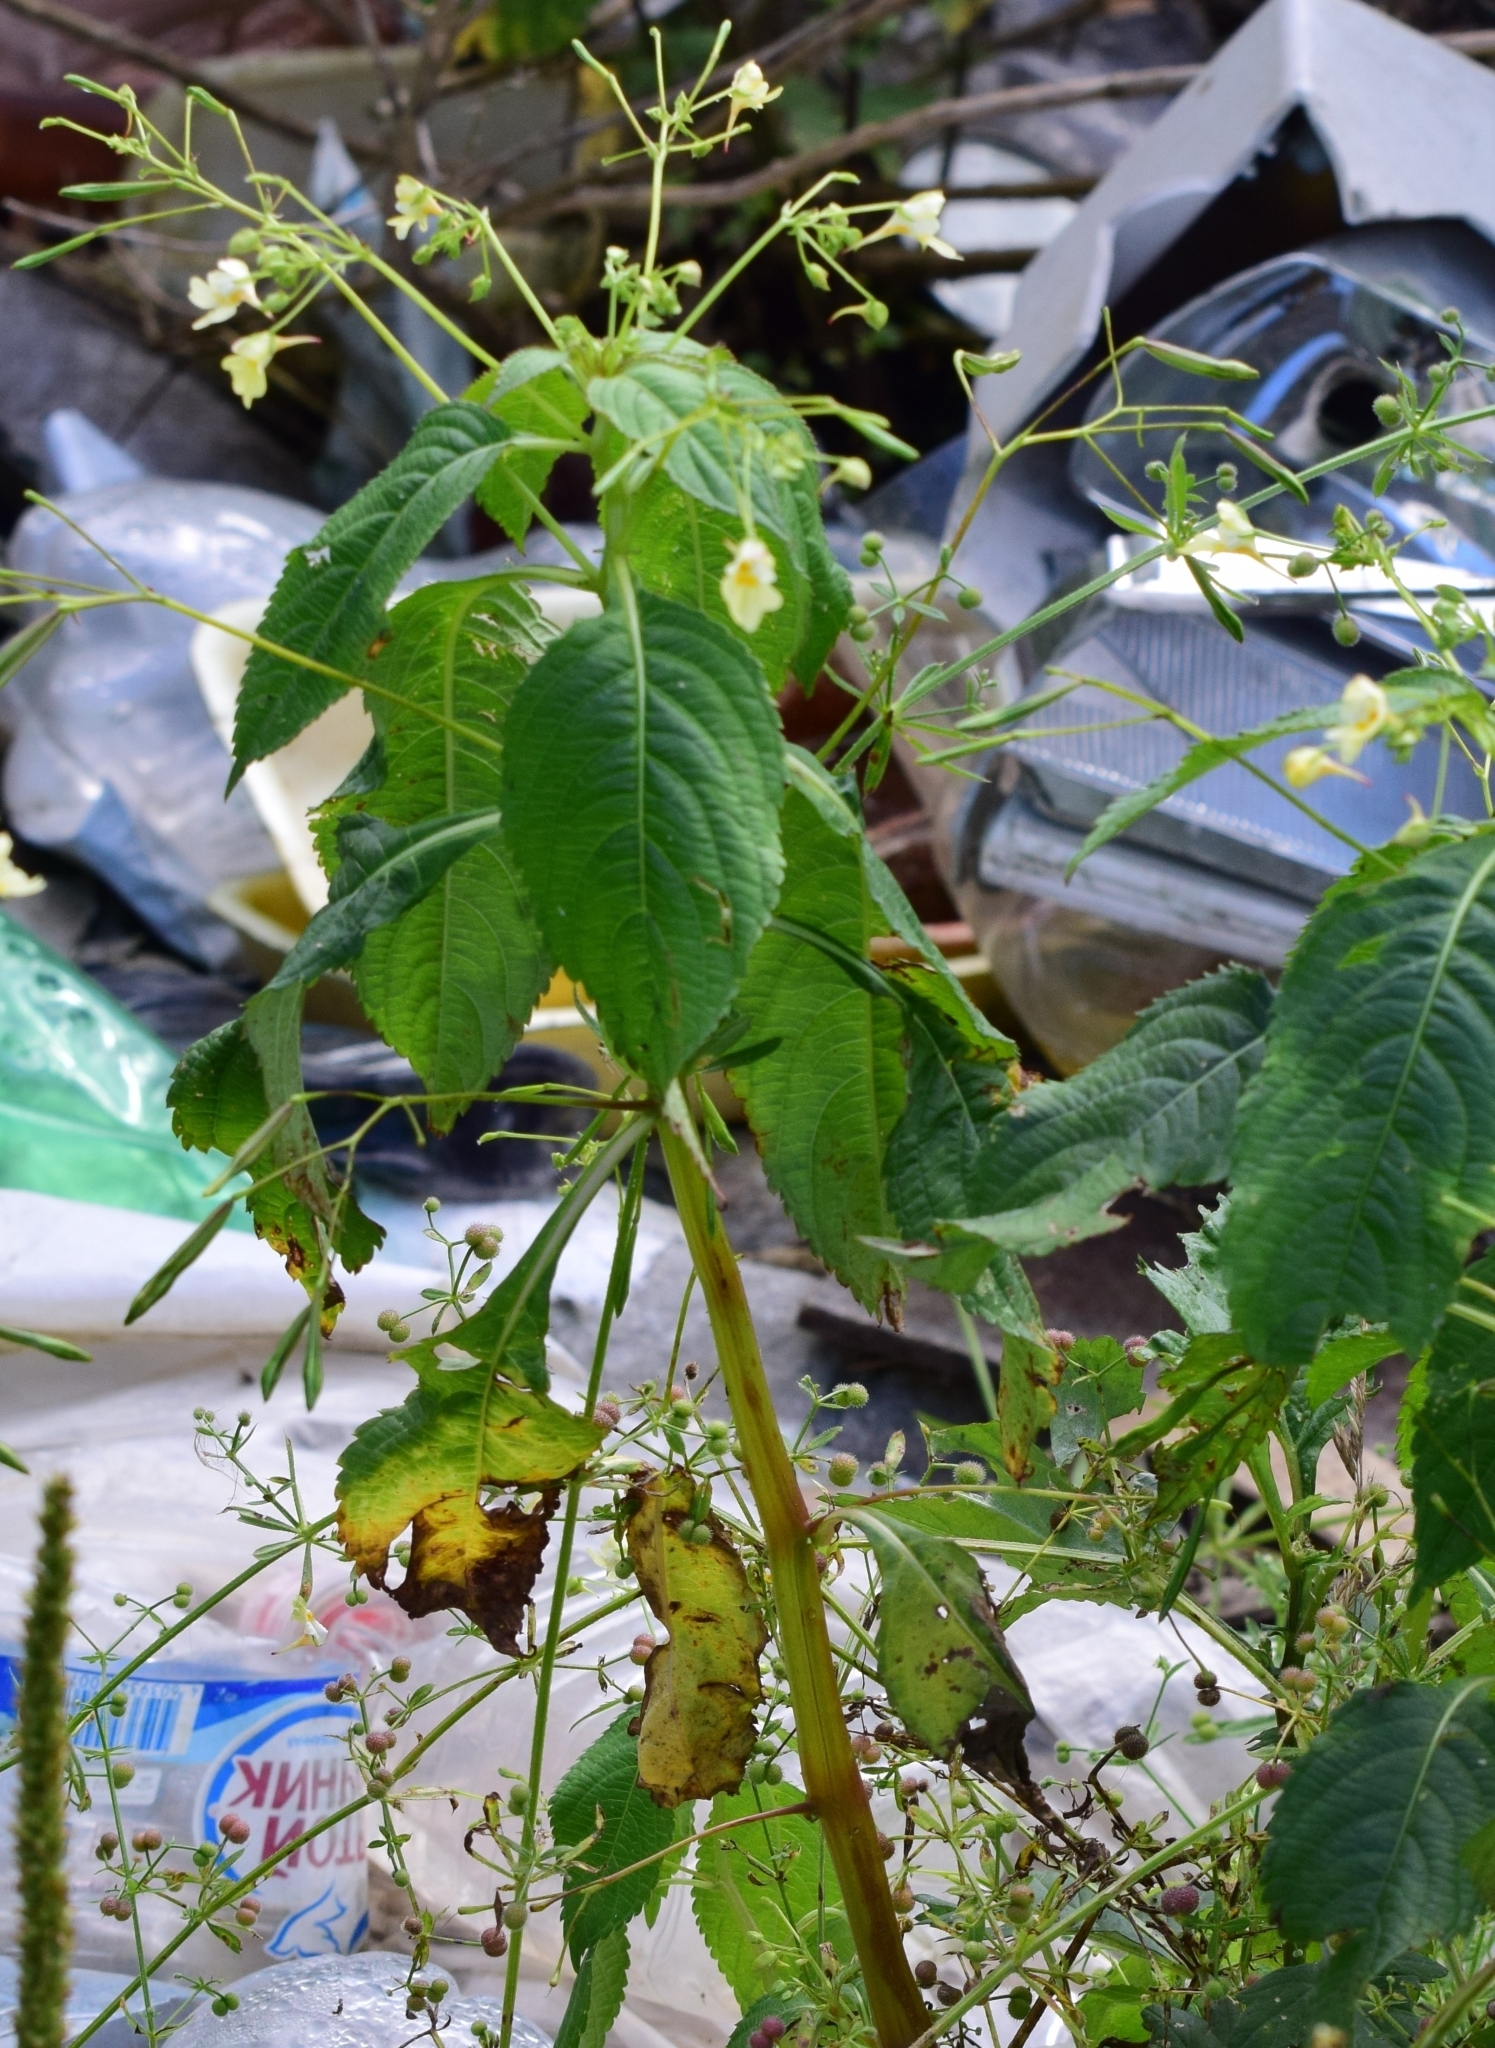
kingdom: Plantae
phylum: Tracheophyta
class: Magnoliopsida
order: Ericales
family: Balsaminaceae
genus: Impatiens
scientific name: Impatiens parviflora
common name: Small balsam
